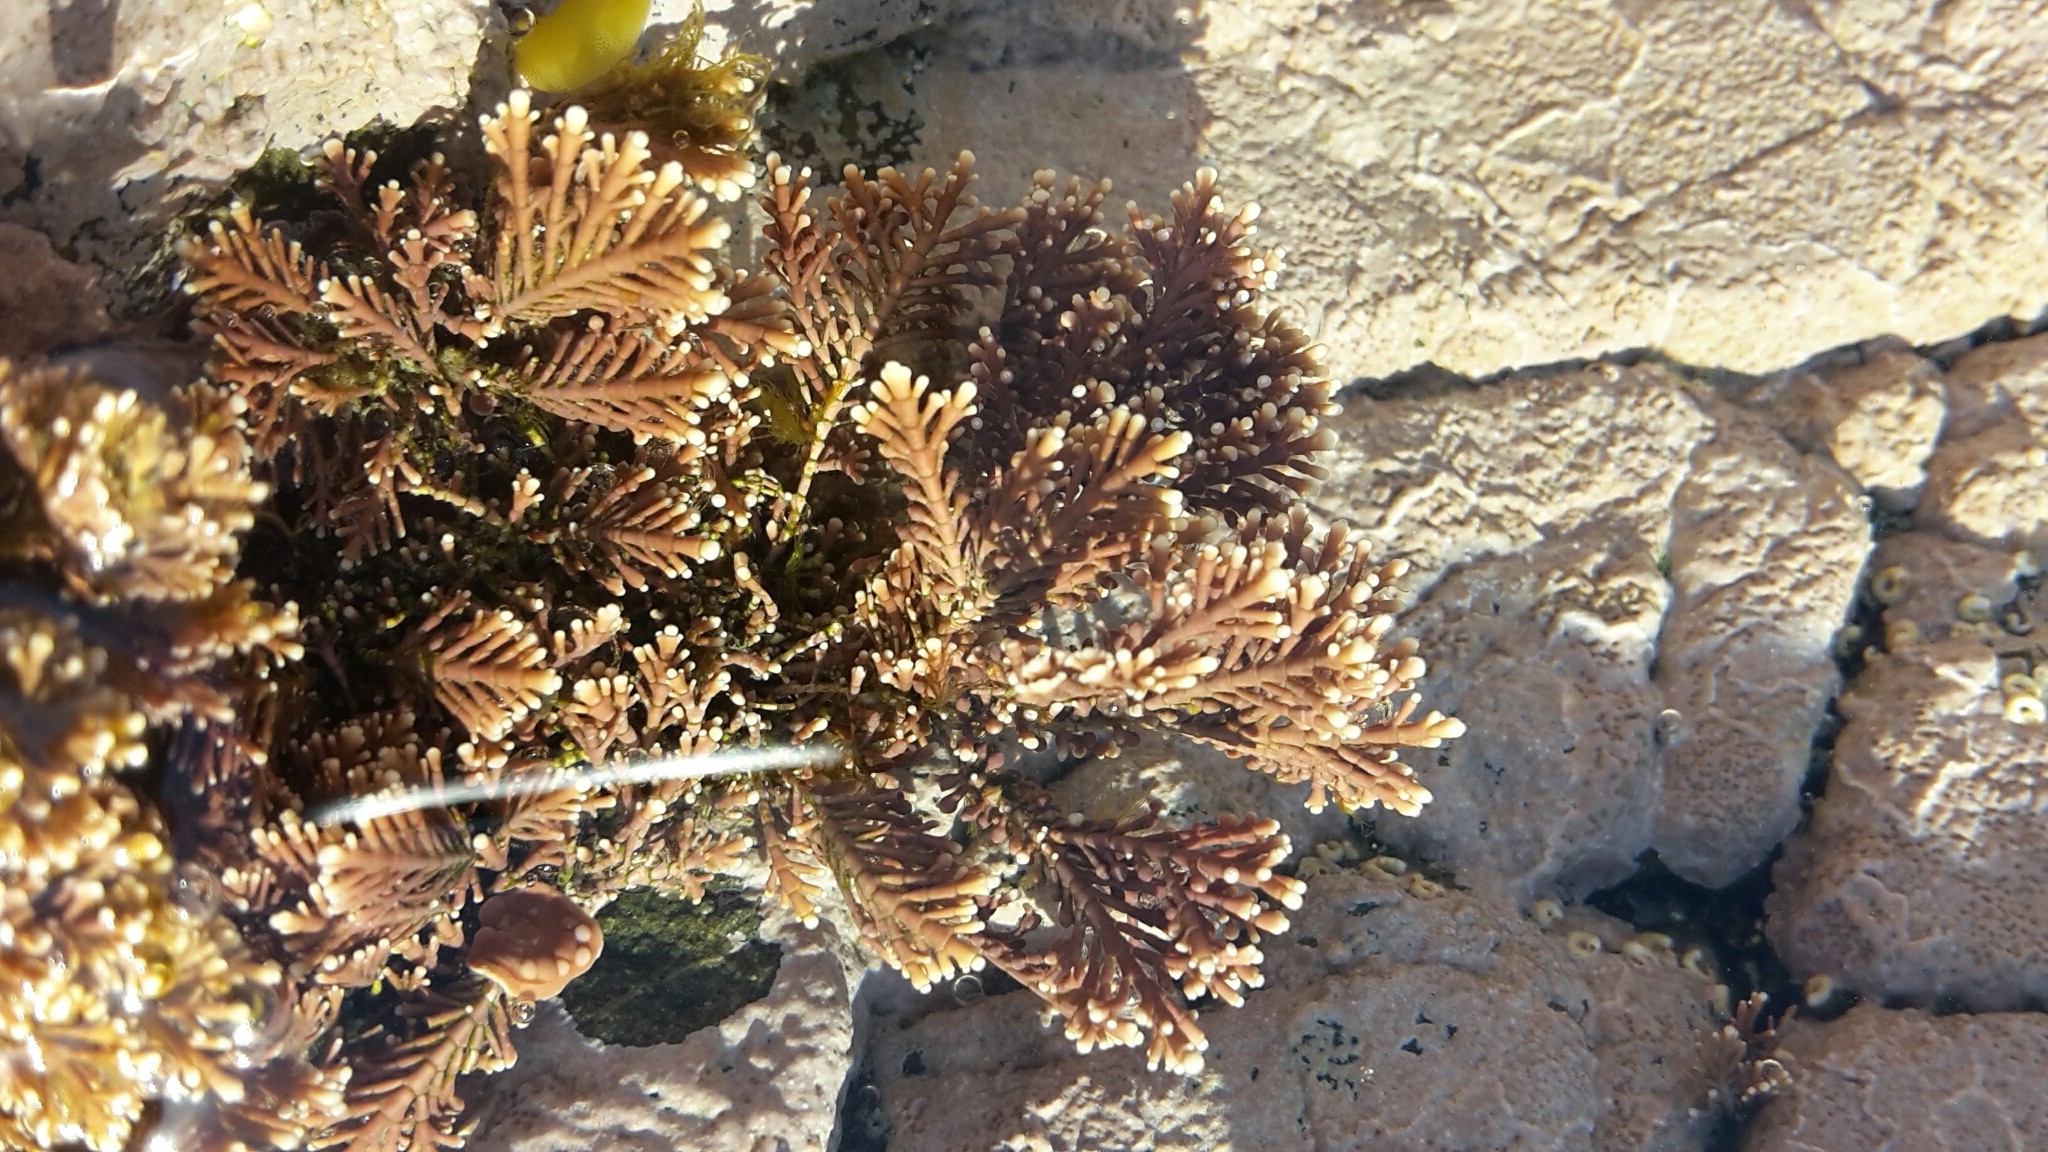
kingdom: Plantae
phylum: Rhodophyta
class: Florideophyceae
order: Corallinales
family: Corallinaceae
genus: Corallina
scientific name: Corallina officinalis
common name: Coral weed
